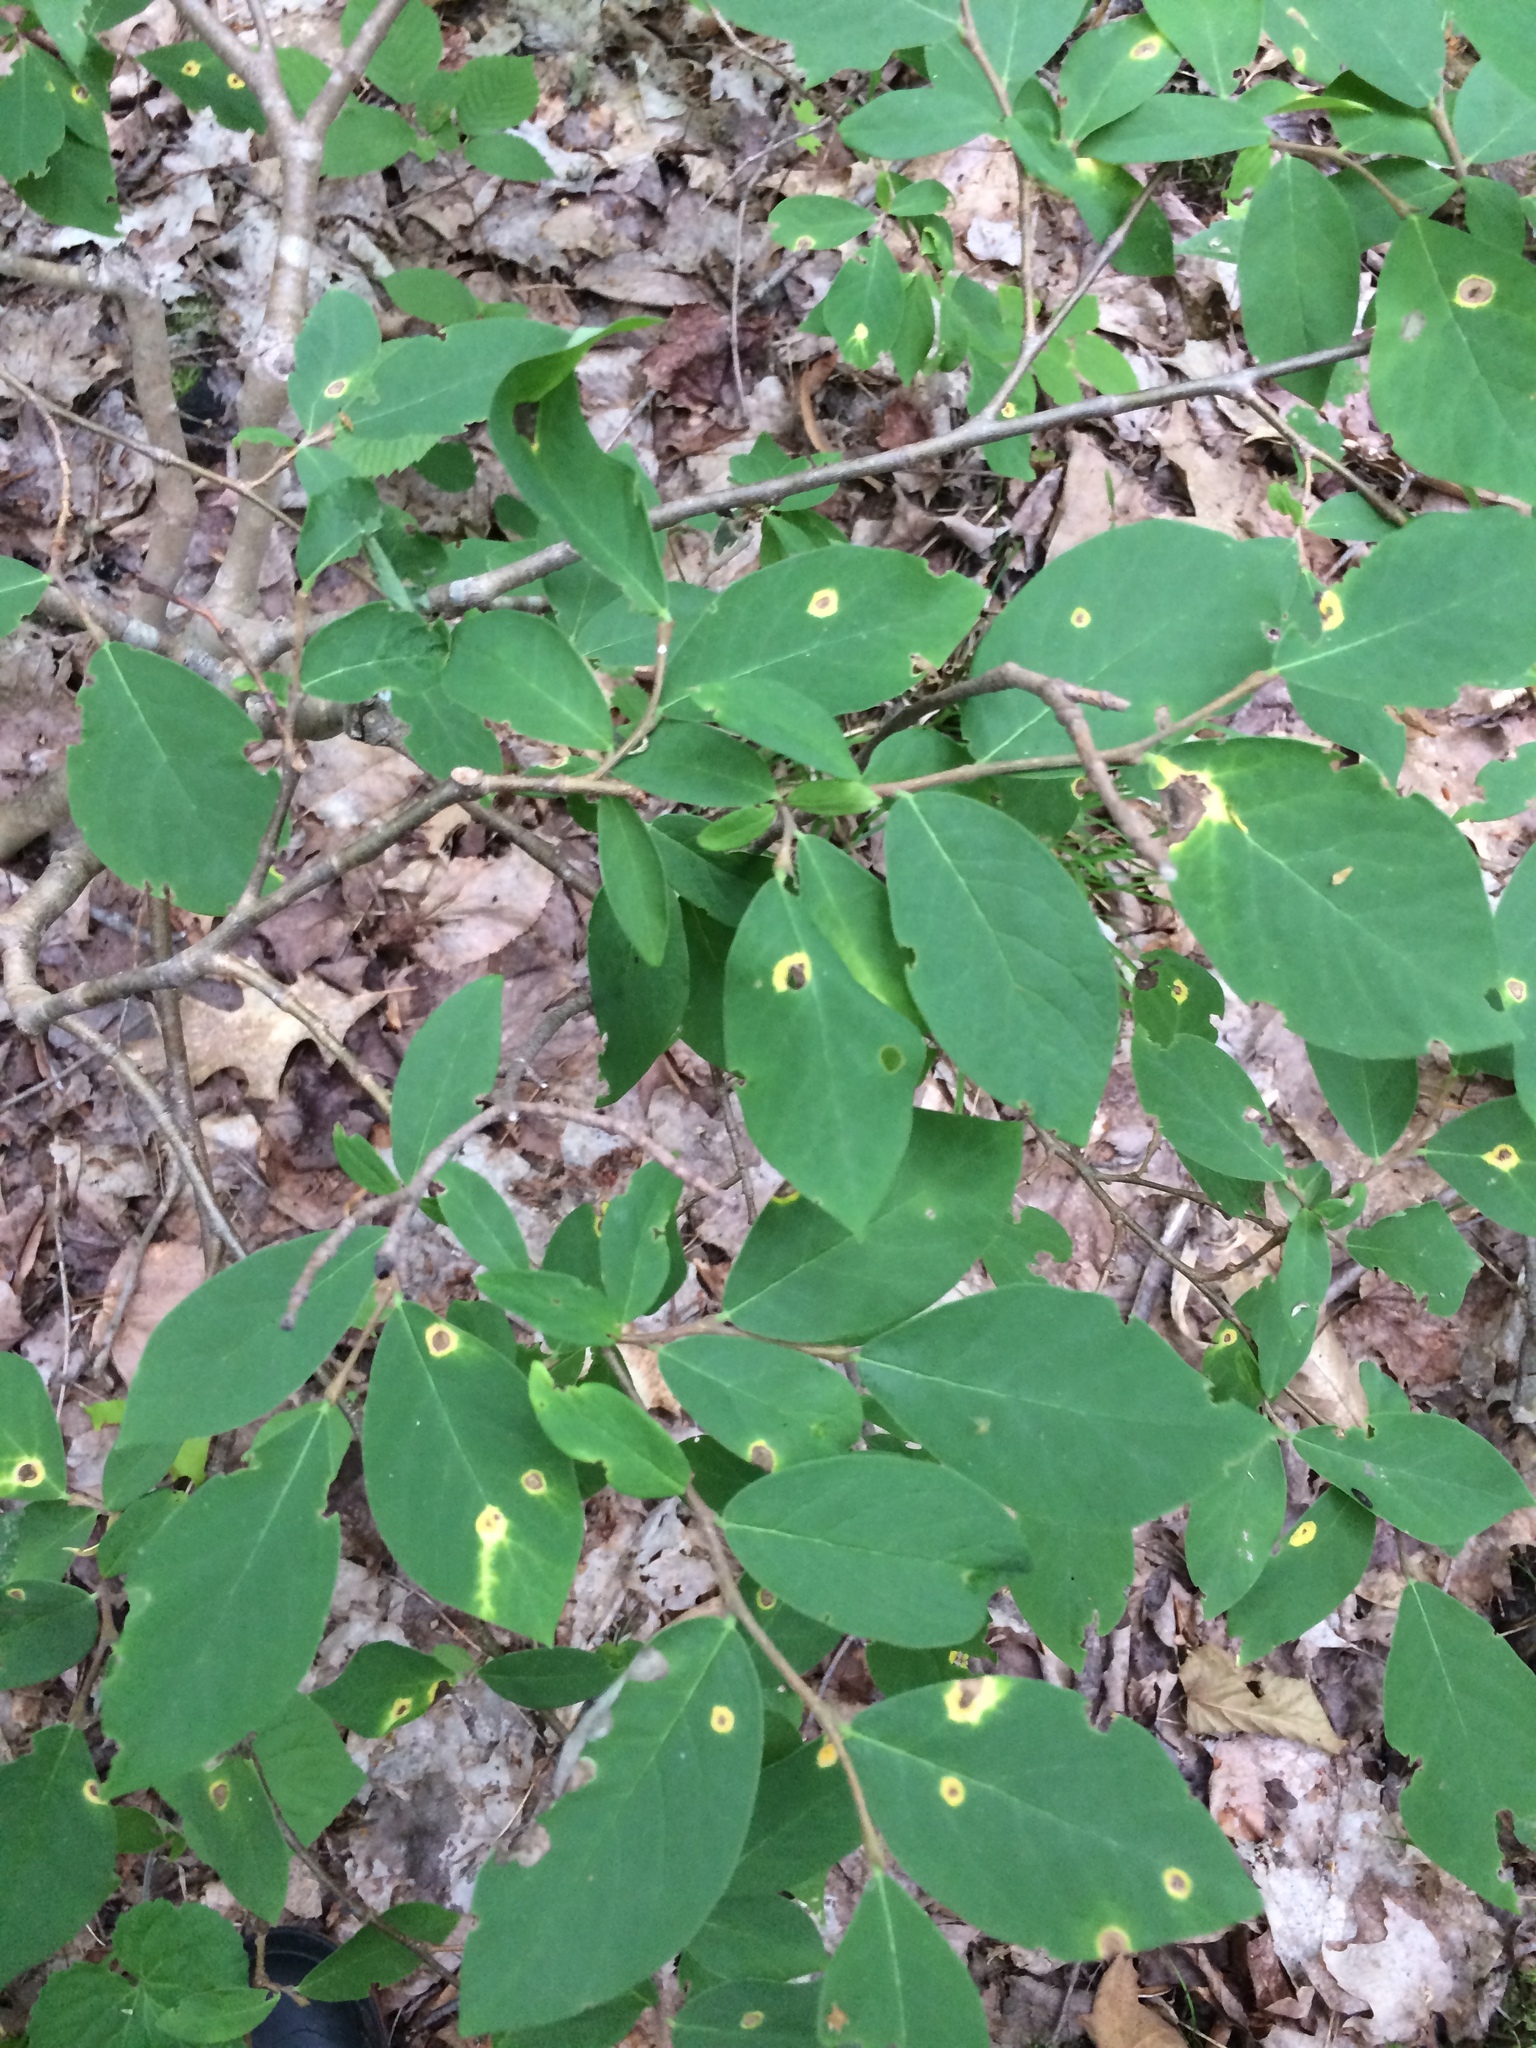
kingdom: Plantae
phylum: Tracheophyta
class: Magnoliopsida
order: Malvales
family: Thymelaeaceae
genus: Dirca
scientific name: Dirca palustris
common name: Leatherwood
